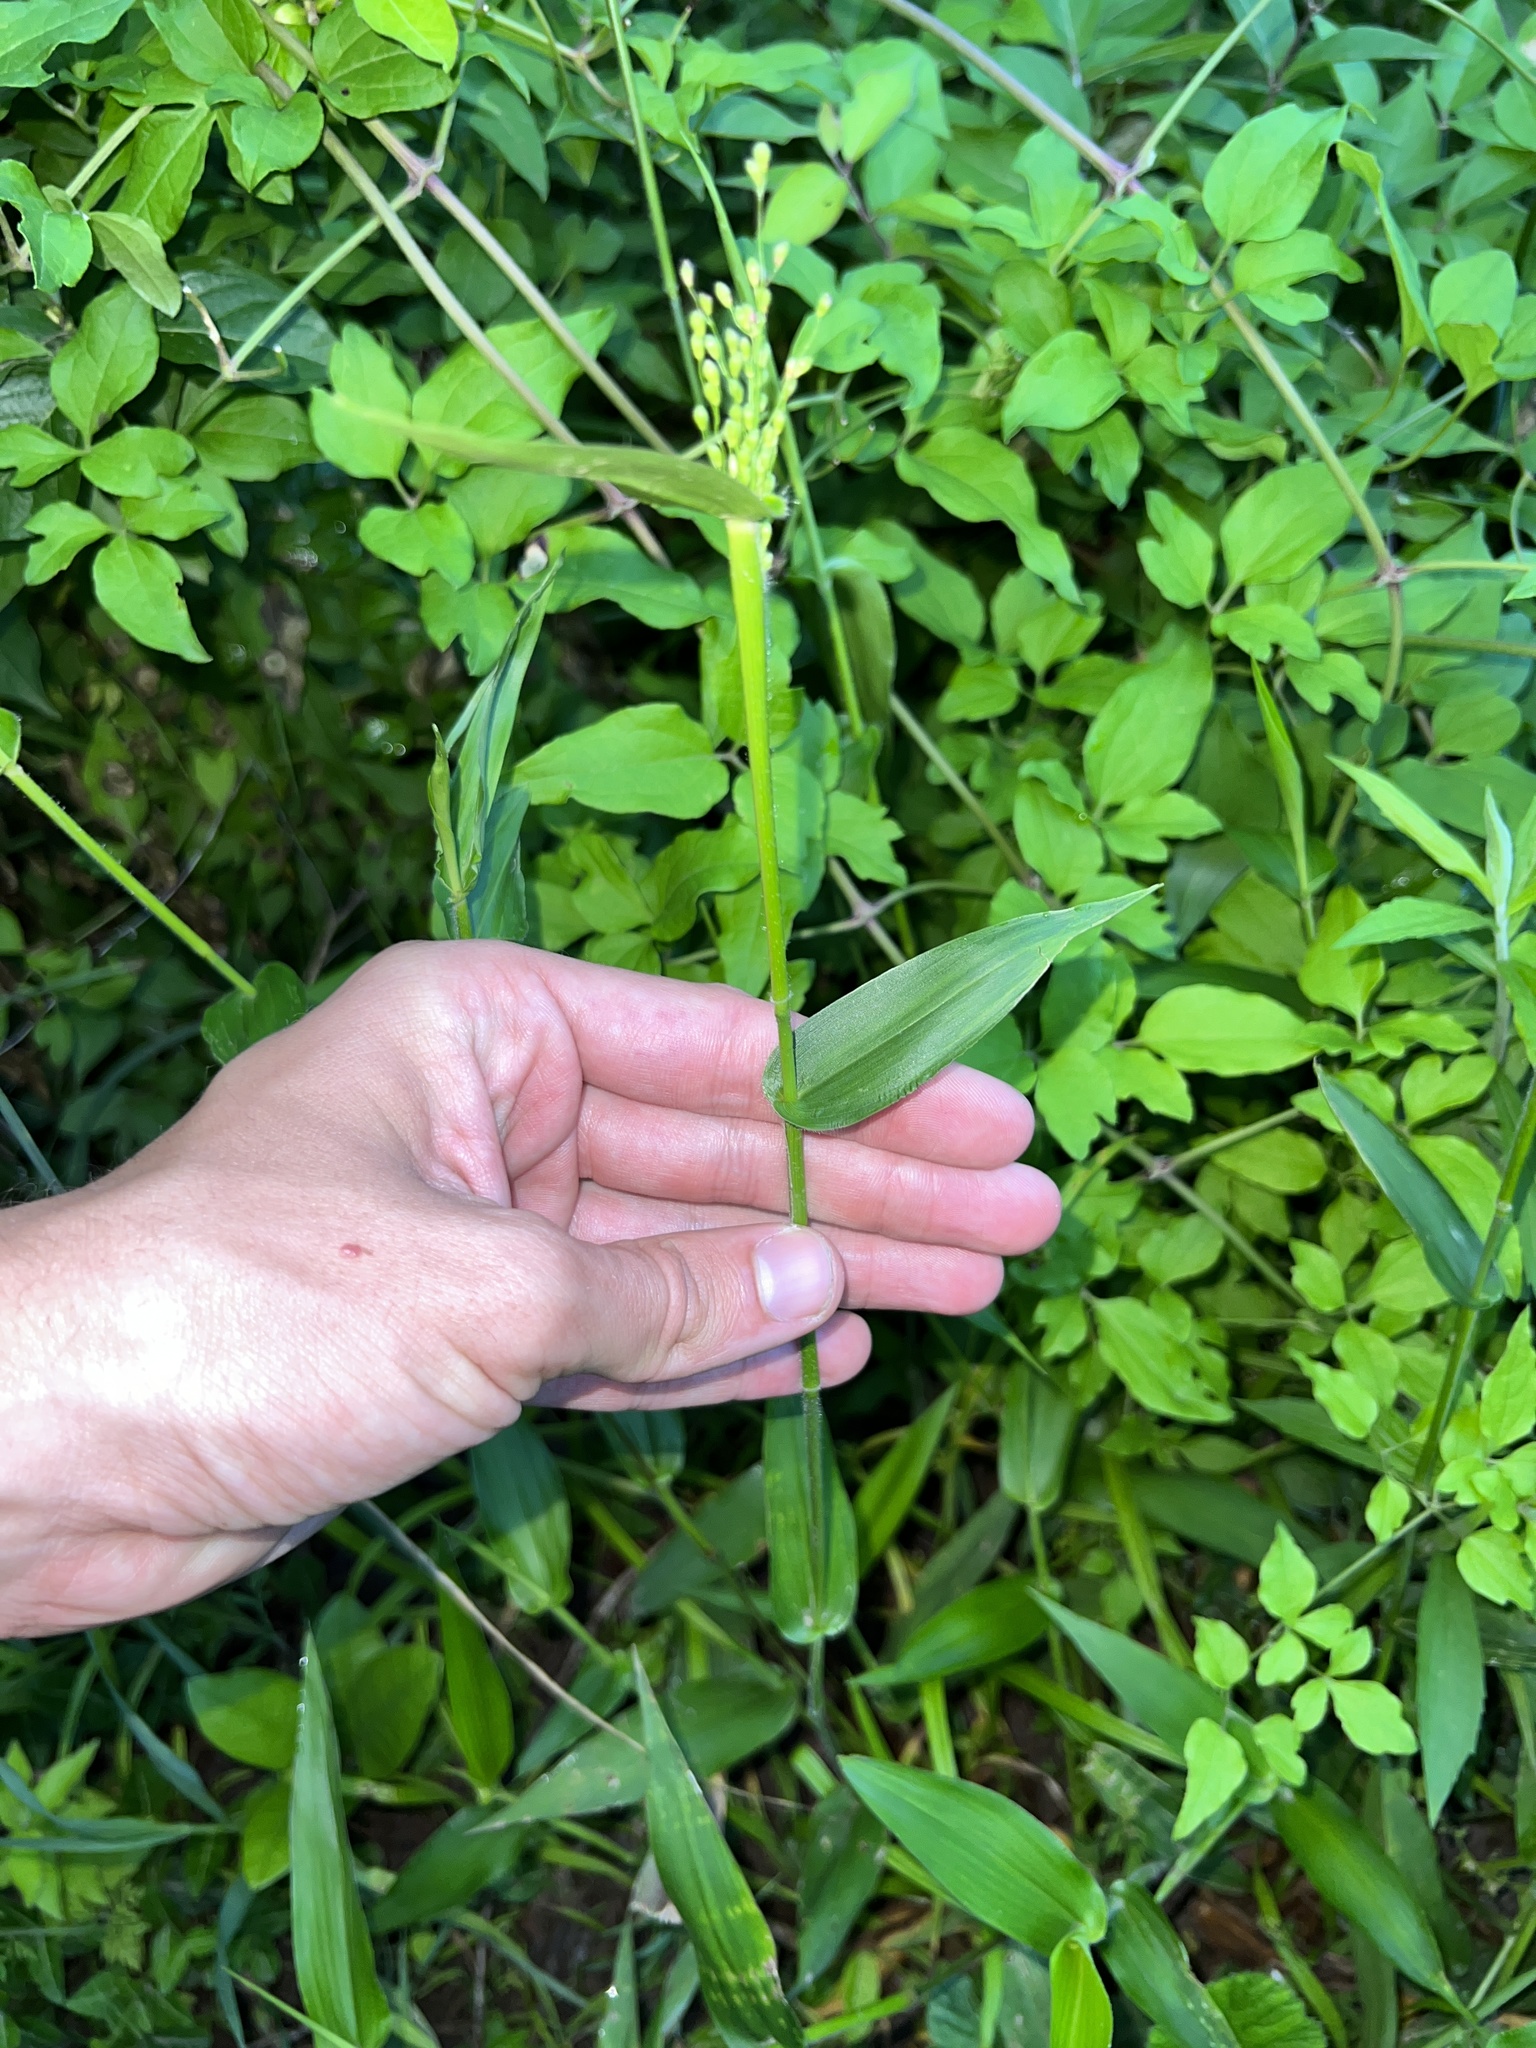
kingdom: Plantae
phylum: Tracheophyta
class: Liliopsida
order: Poales
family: Poaceae
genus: Dichanthelium
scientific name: Dichanthelium boscii
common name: Bosc's panic grass
